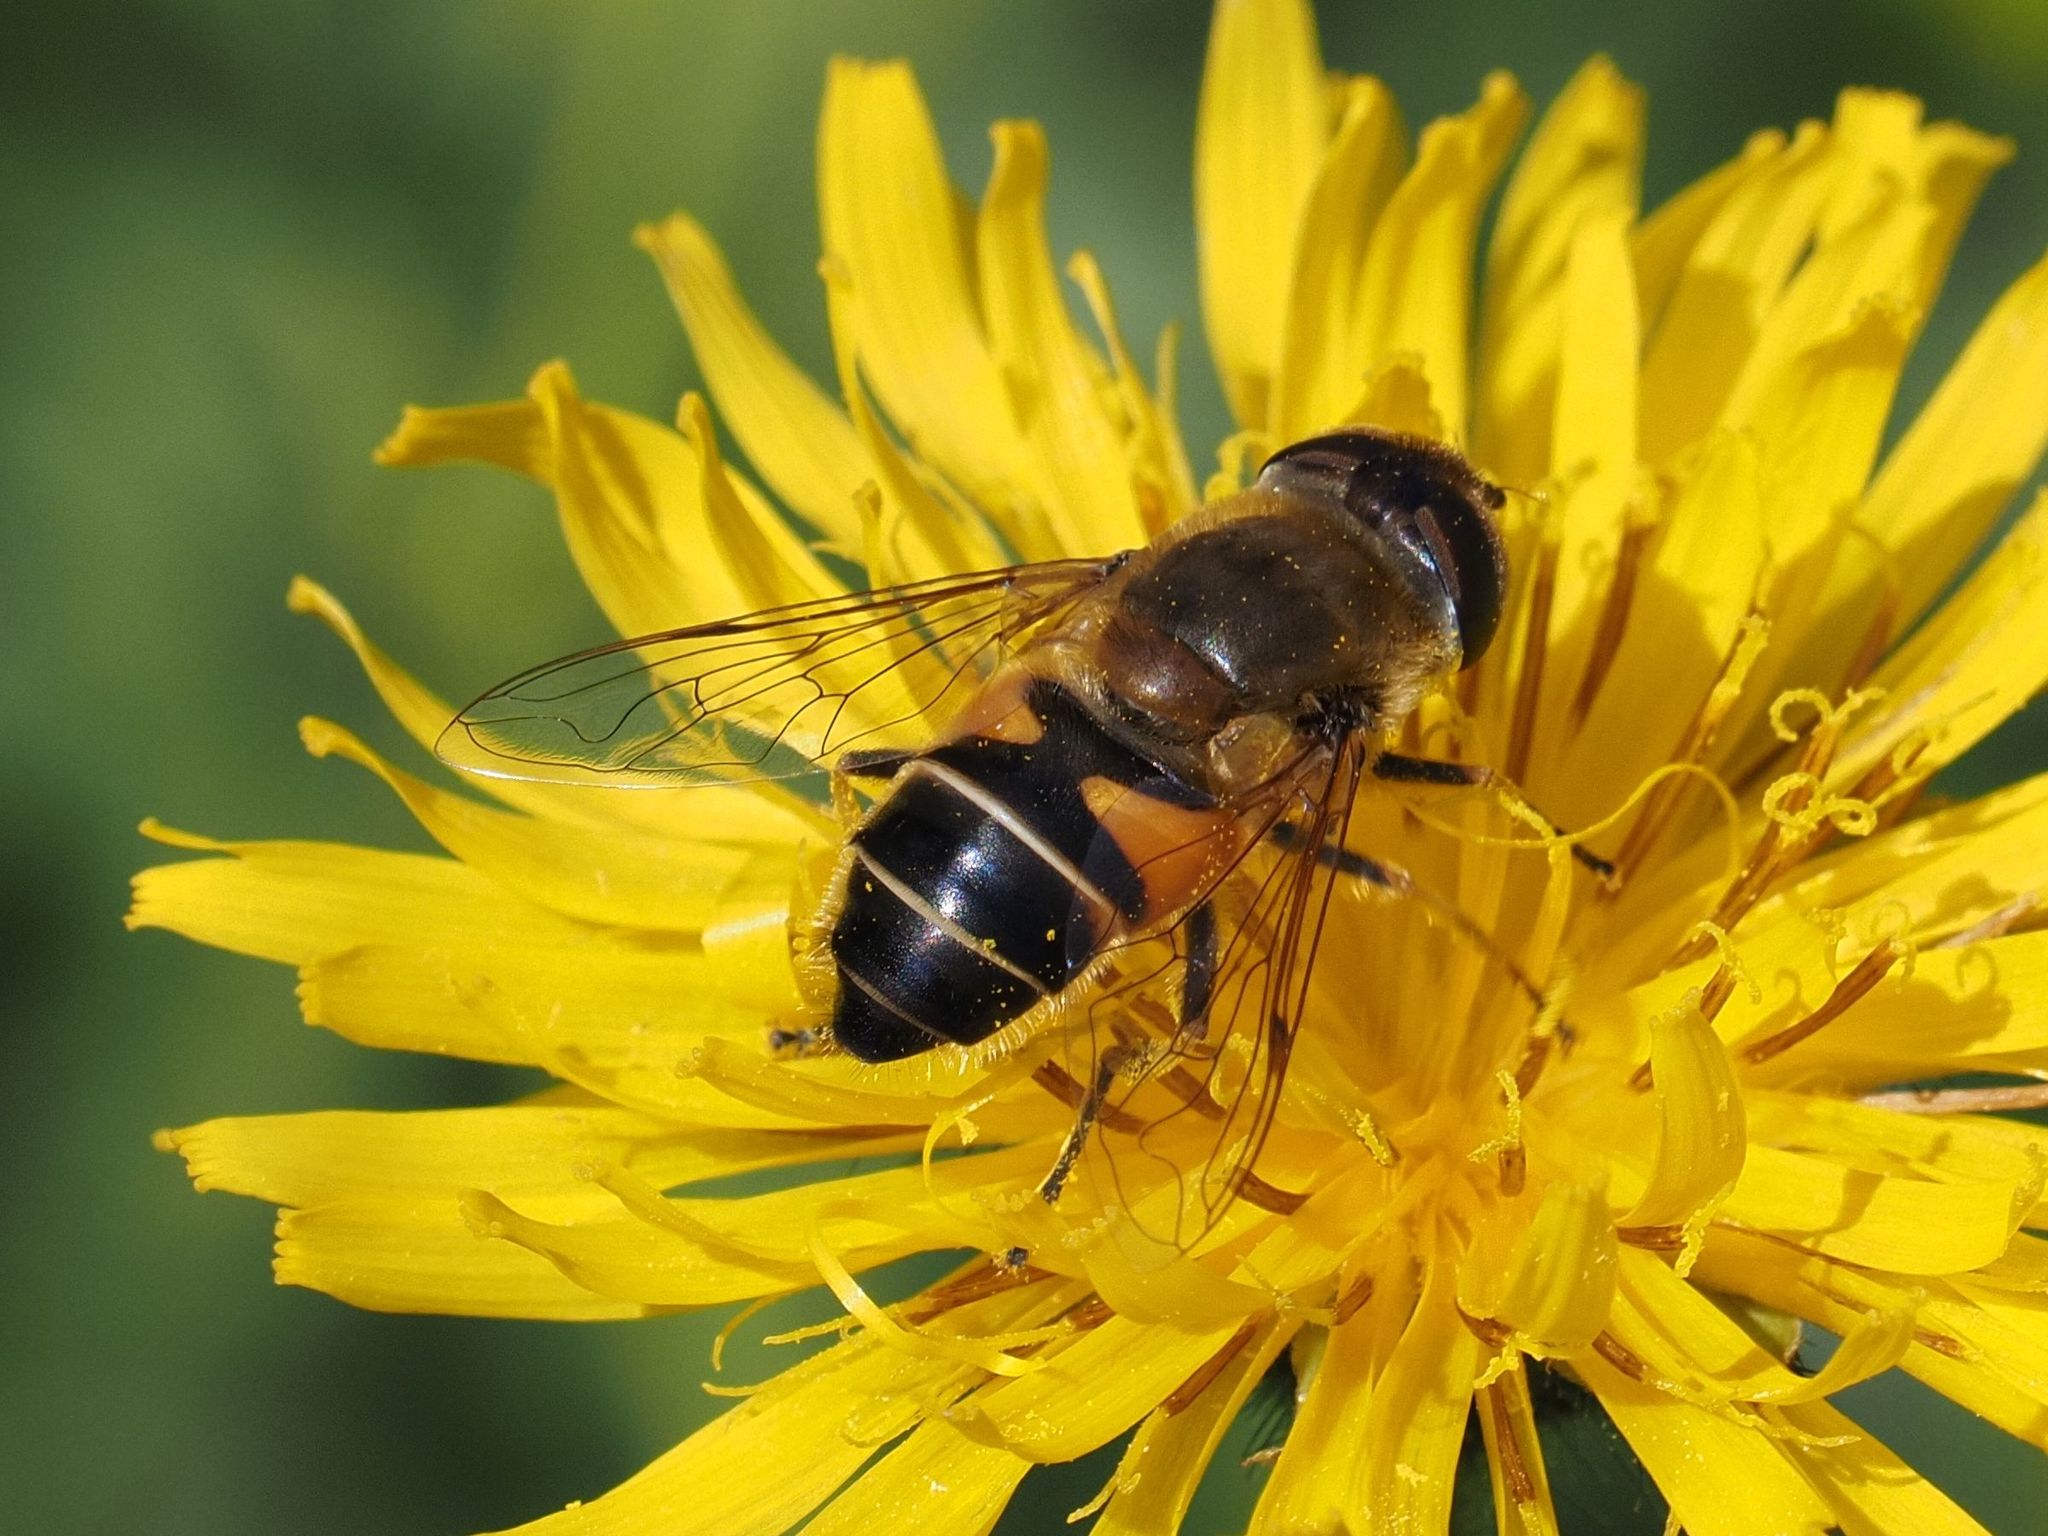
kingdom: Animalia
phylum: Arthropoda
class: Insecta
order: Diptera
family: Syrphidae
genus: Eristalis
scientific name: Eristalis pertinax
